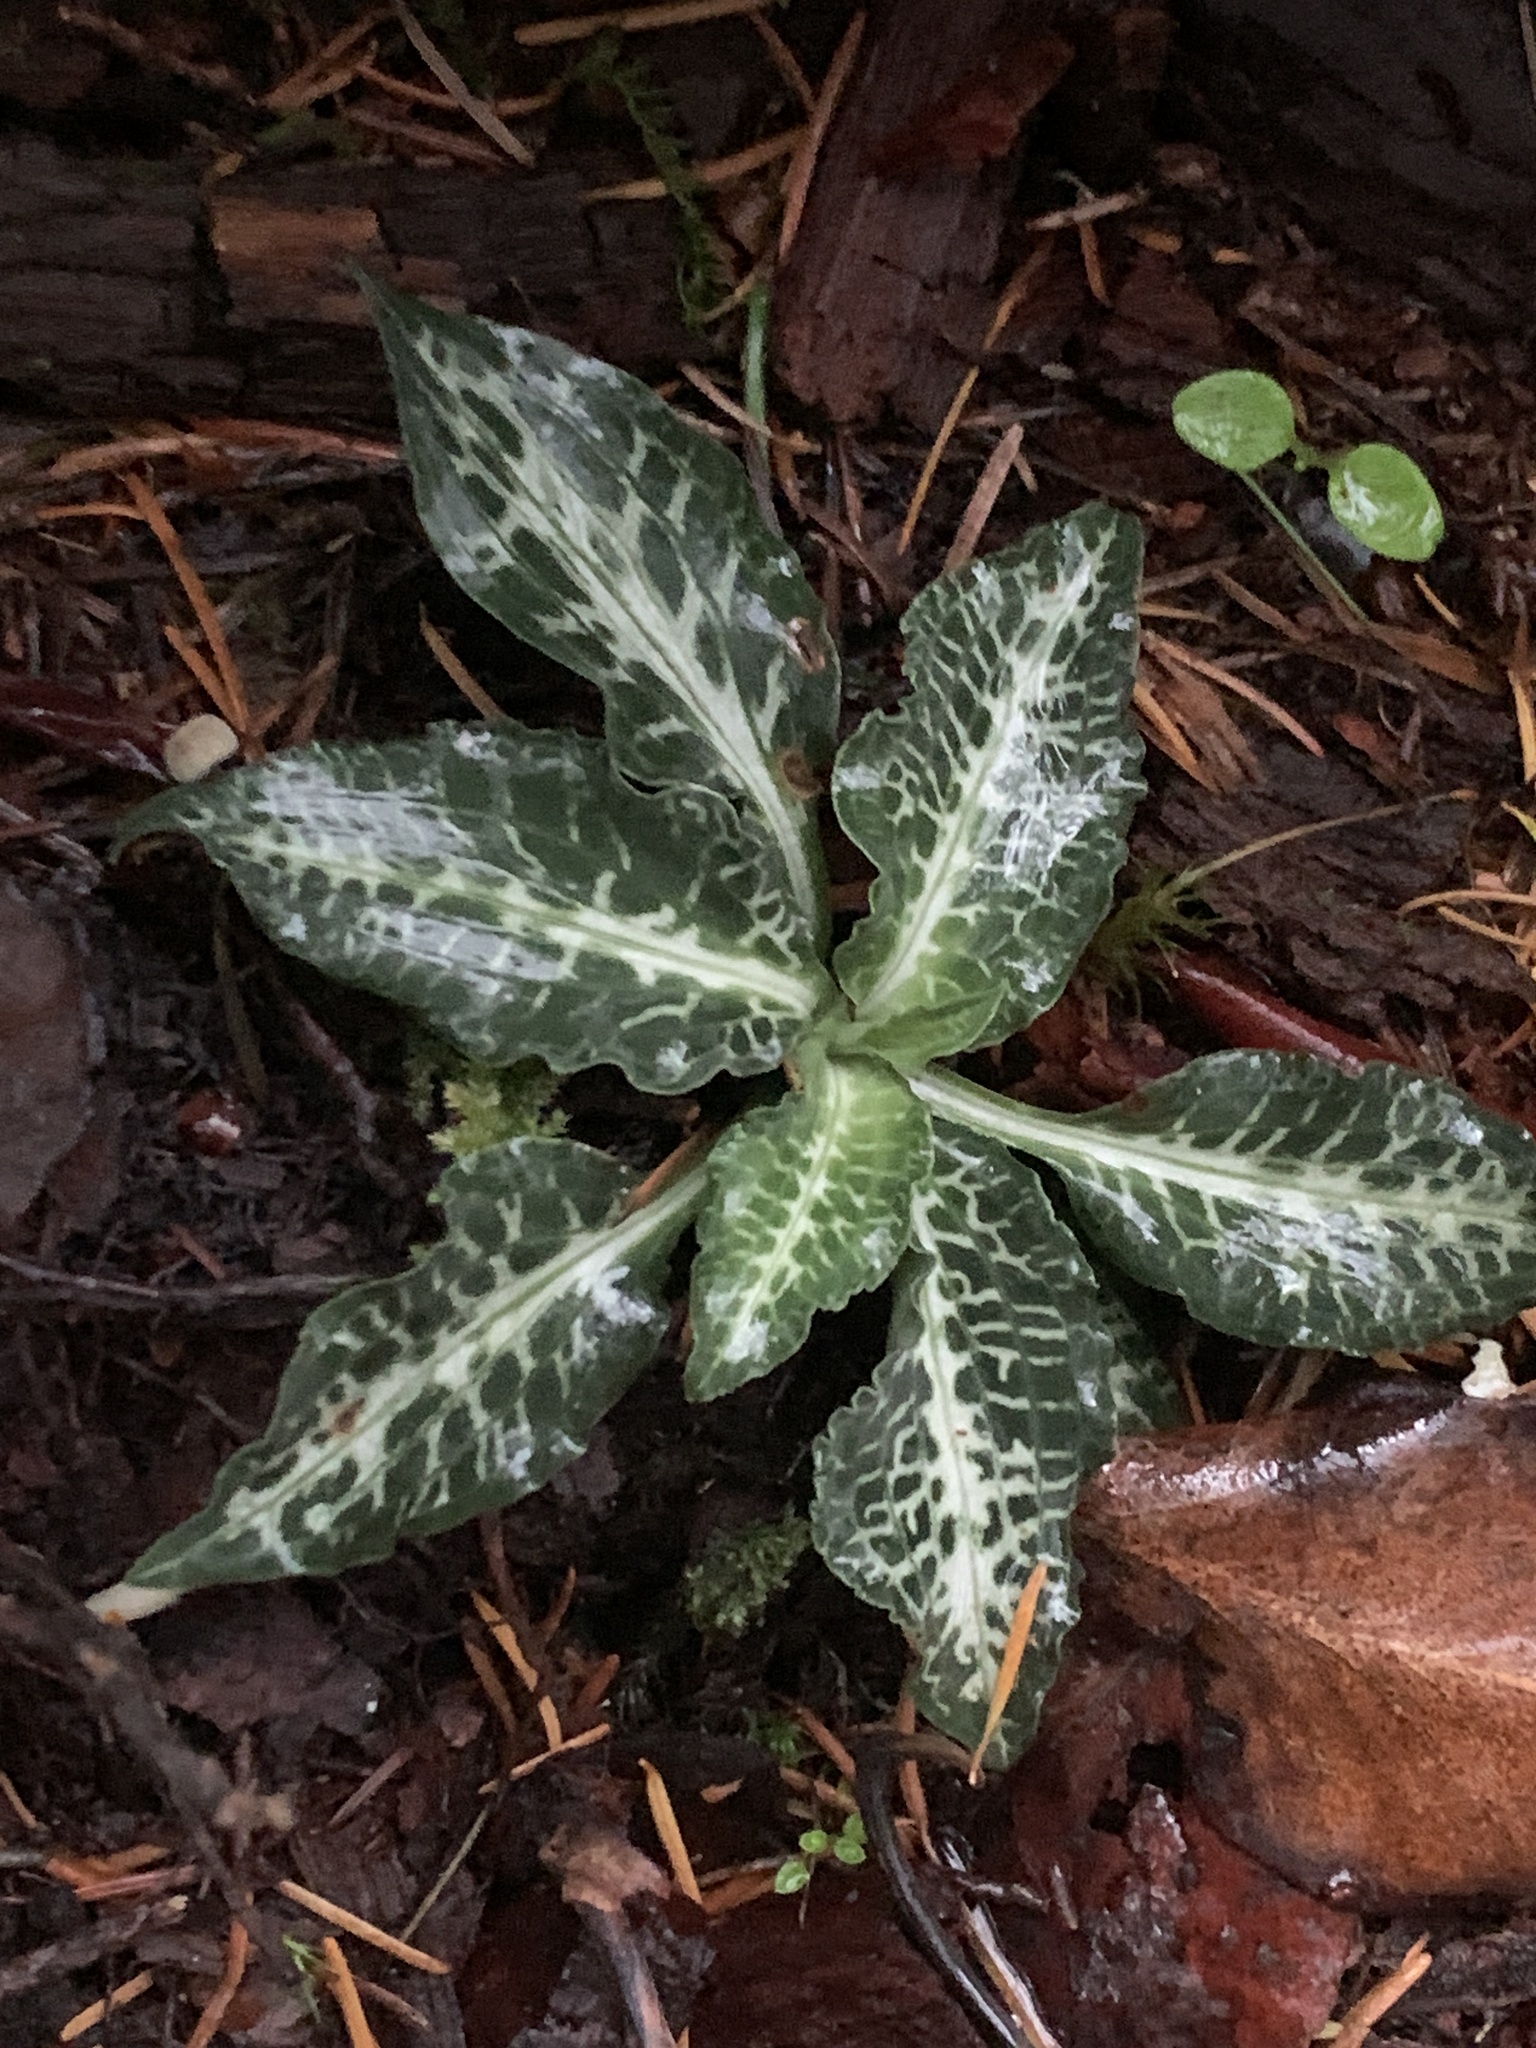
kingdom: Plantae
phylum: Tracheophyta
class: Liliopsida
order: Asparagales
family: Orchidaceae
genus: Goodyera
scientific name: Goodyera oblongifolia
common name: Giant rattlesnake-plantain
